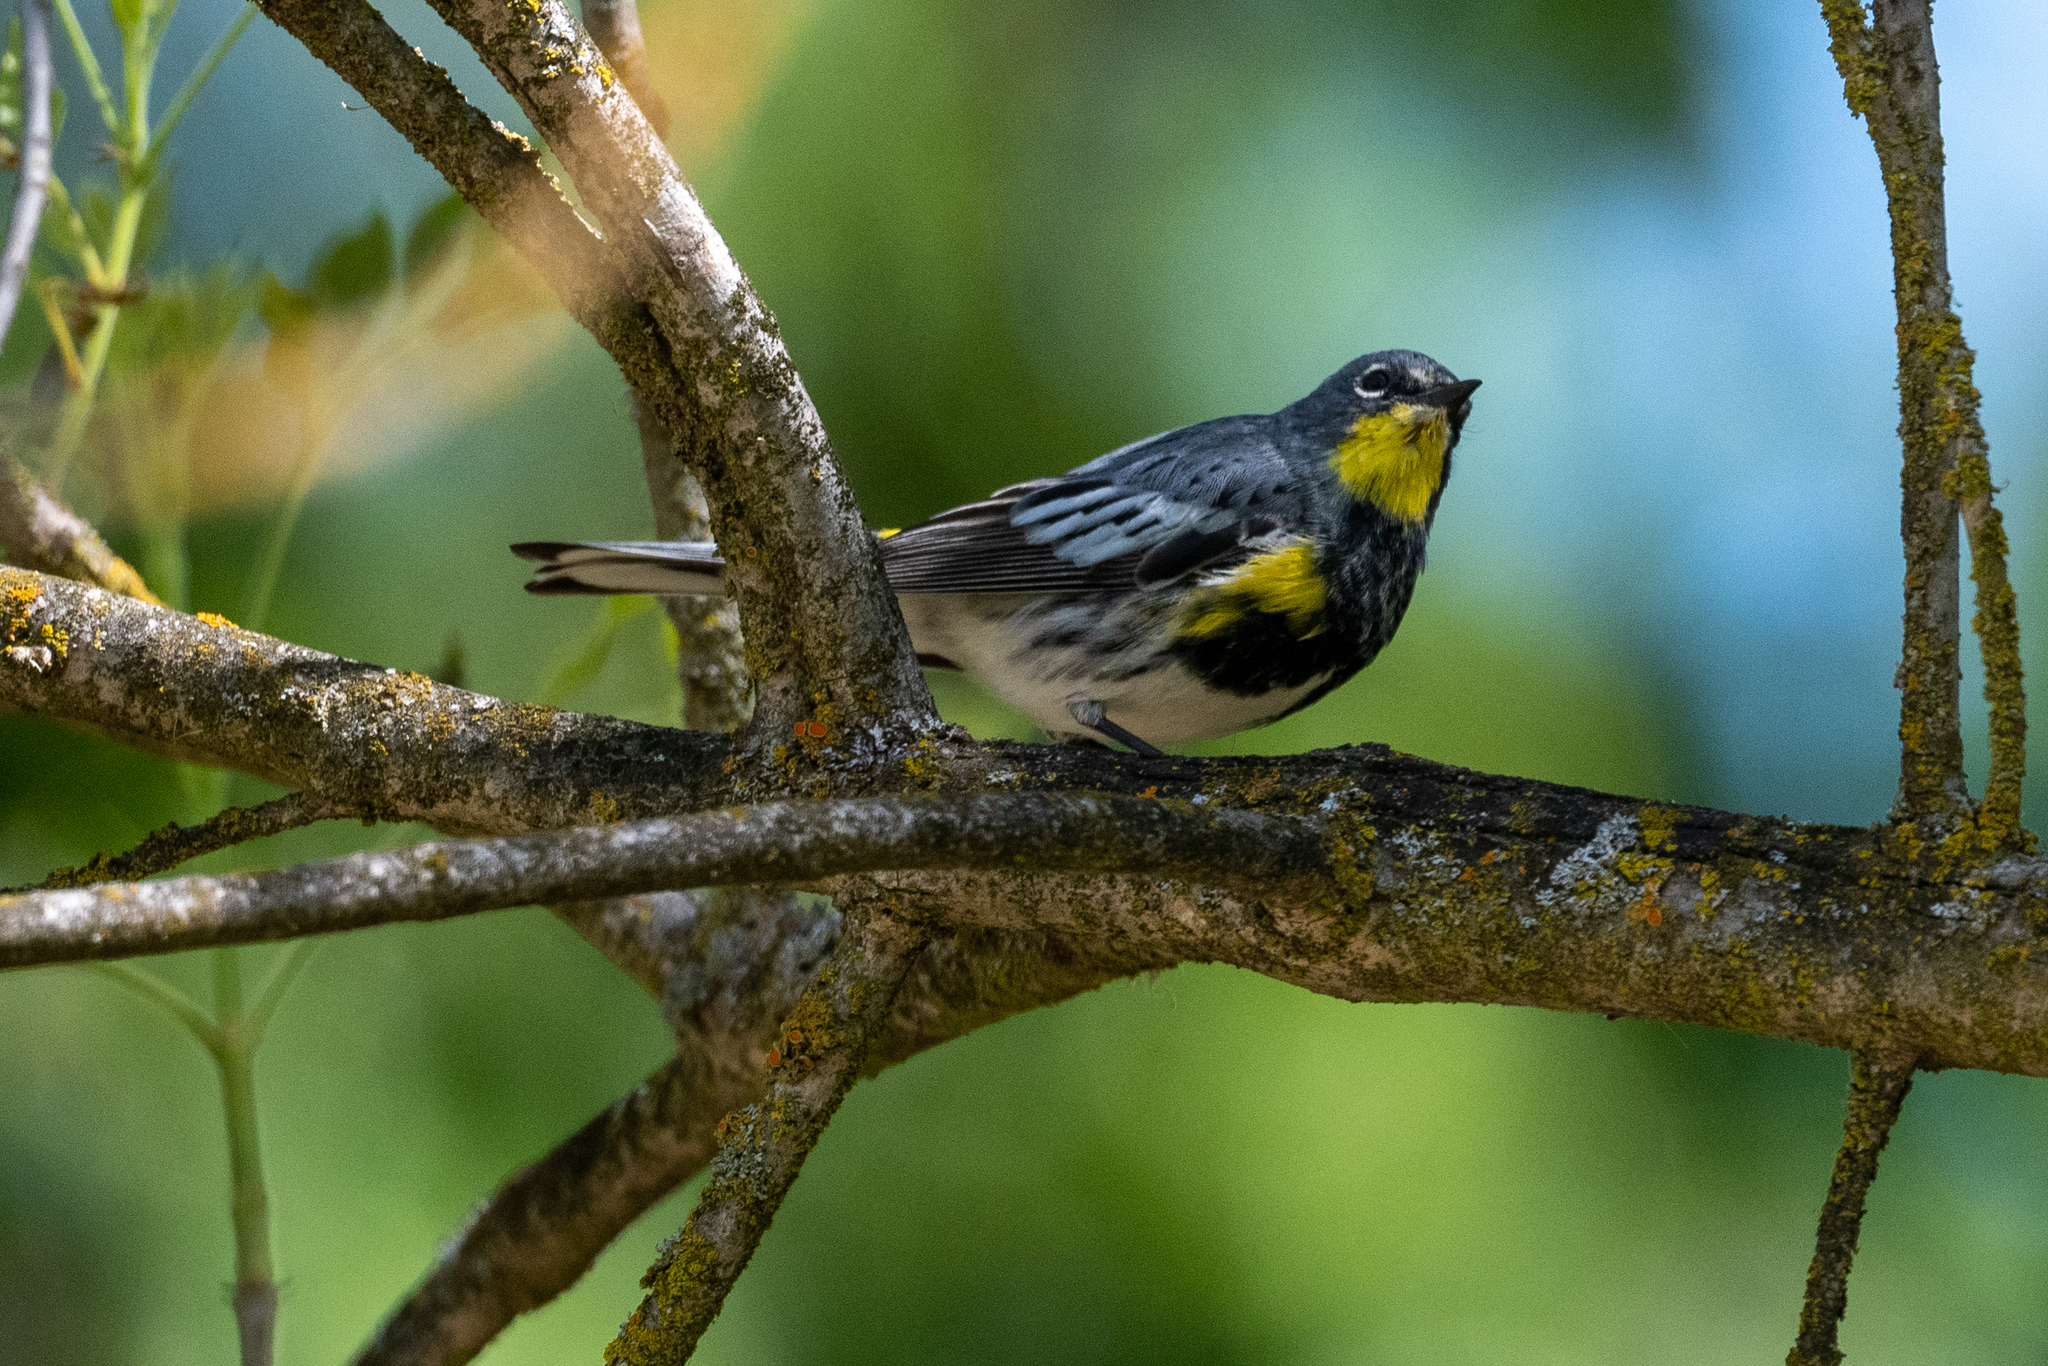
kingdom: Animalia
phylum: Chordata
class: Aves
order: Passeriformes
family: Parulidae
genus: Setophaga
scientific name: Setophaga coronata
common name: Myrtle warbler
